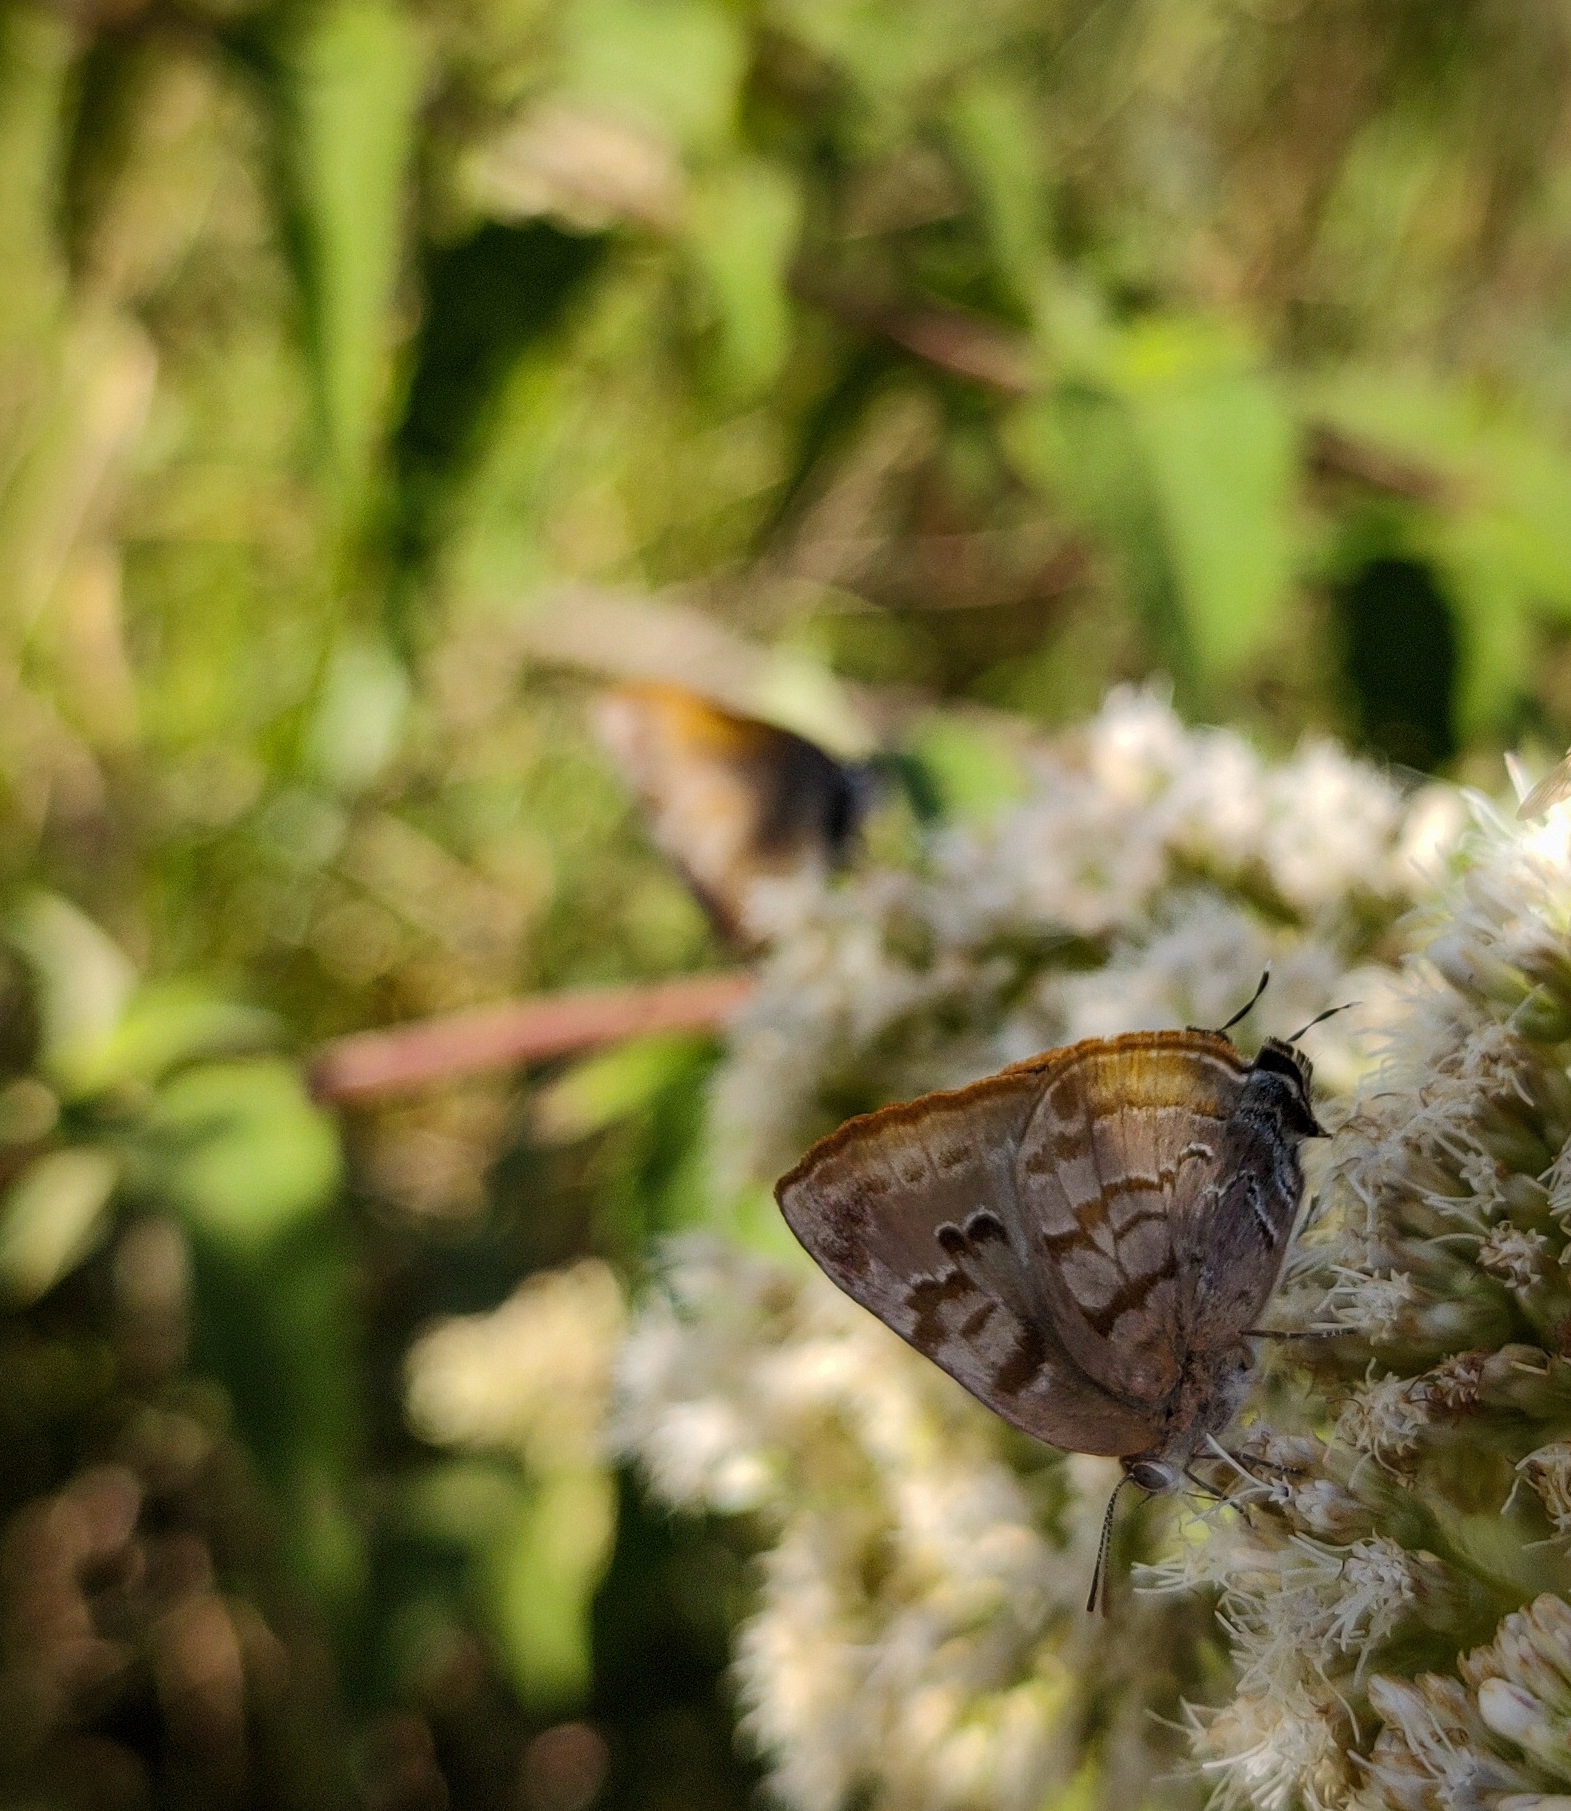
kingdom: Animalia
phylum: Arthropoda
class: Insecta
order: Lepidoptera
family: Lycaenidae
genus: Rekoa
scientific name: Rekoa palegon
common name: Gold-bordered hairstreak
